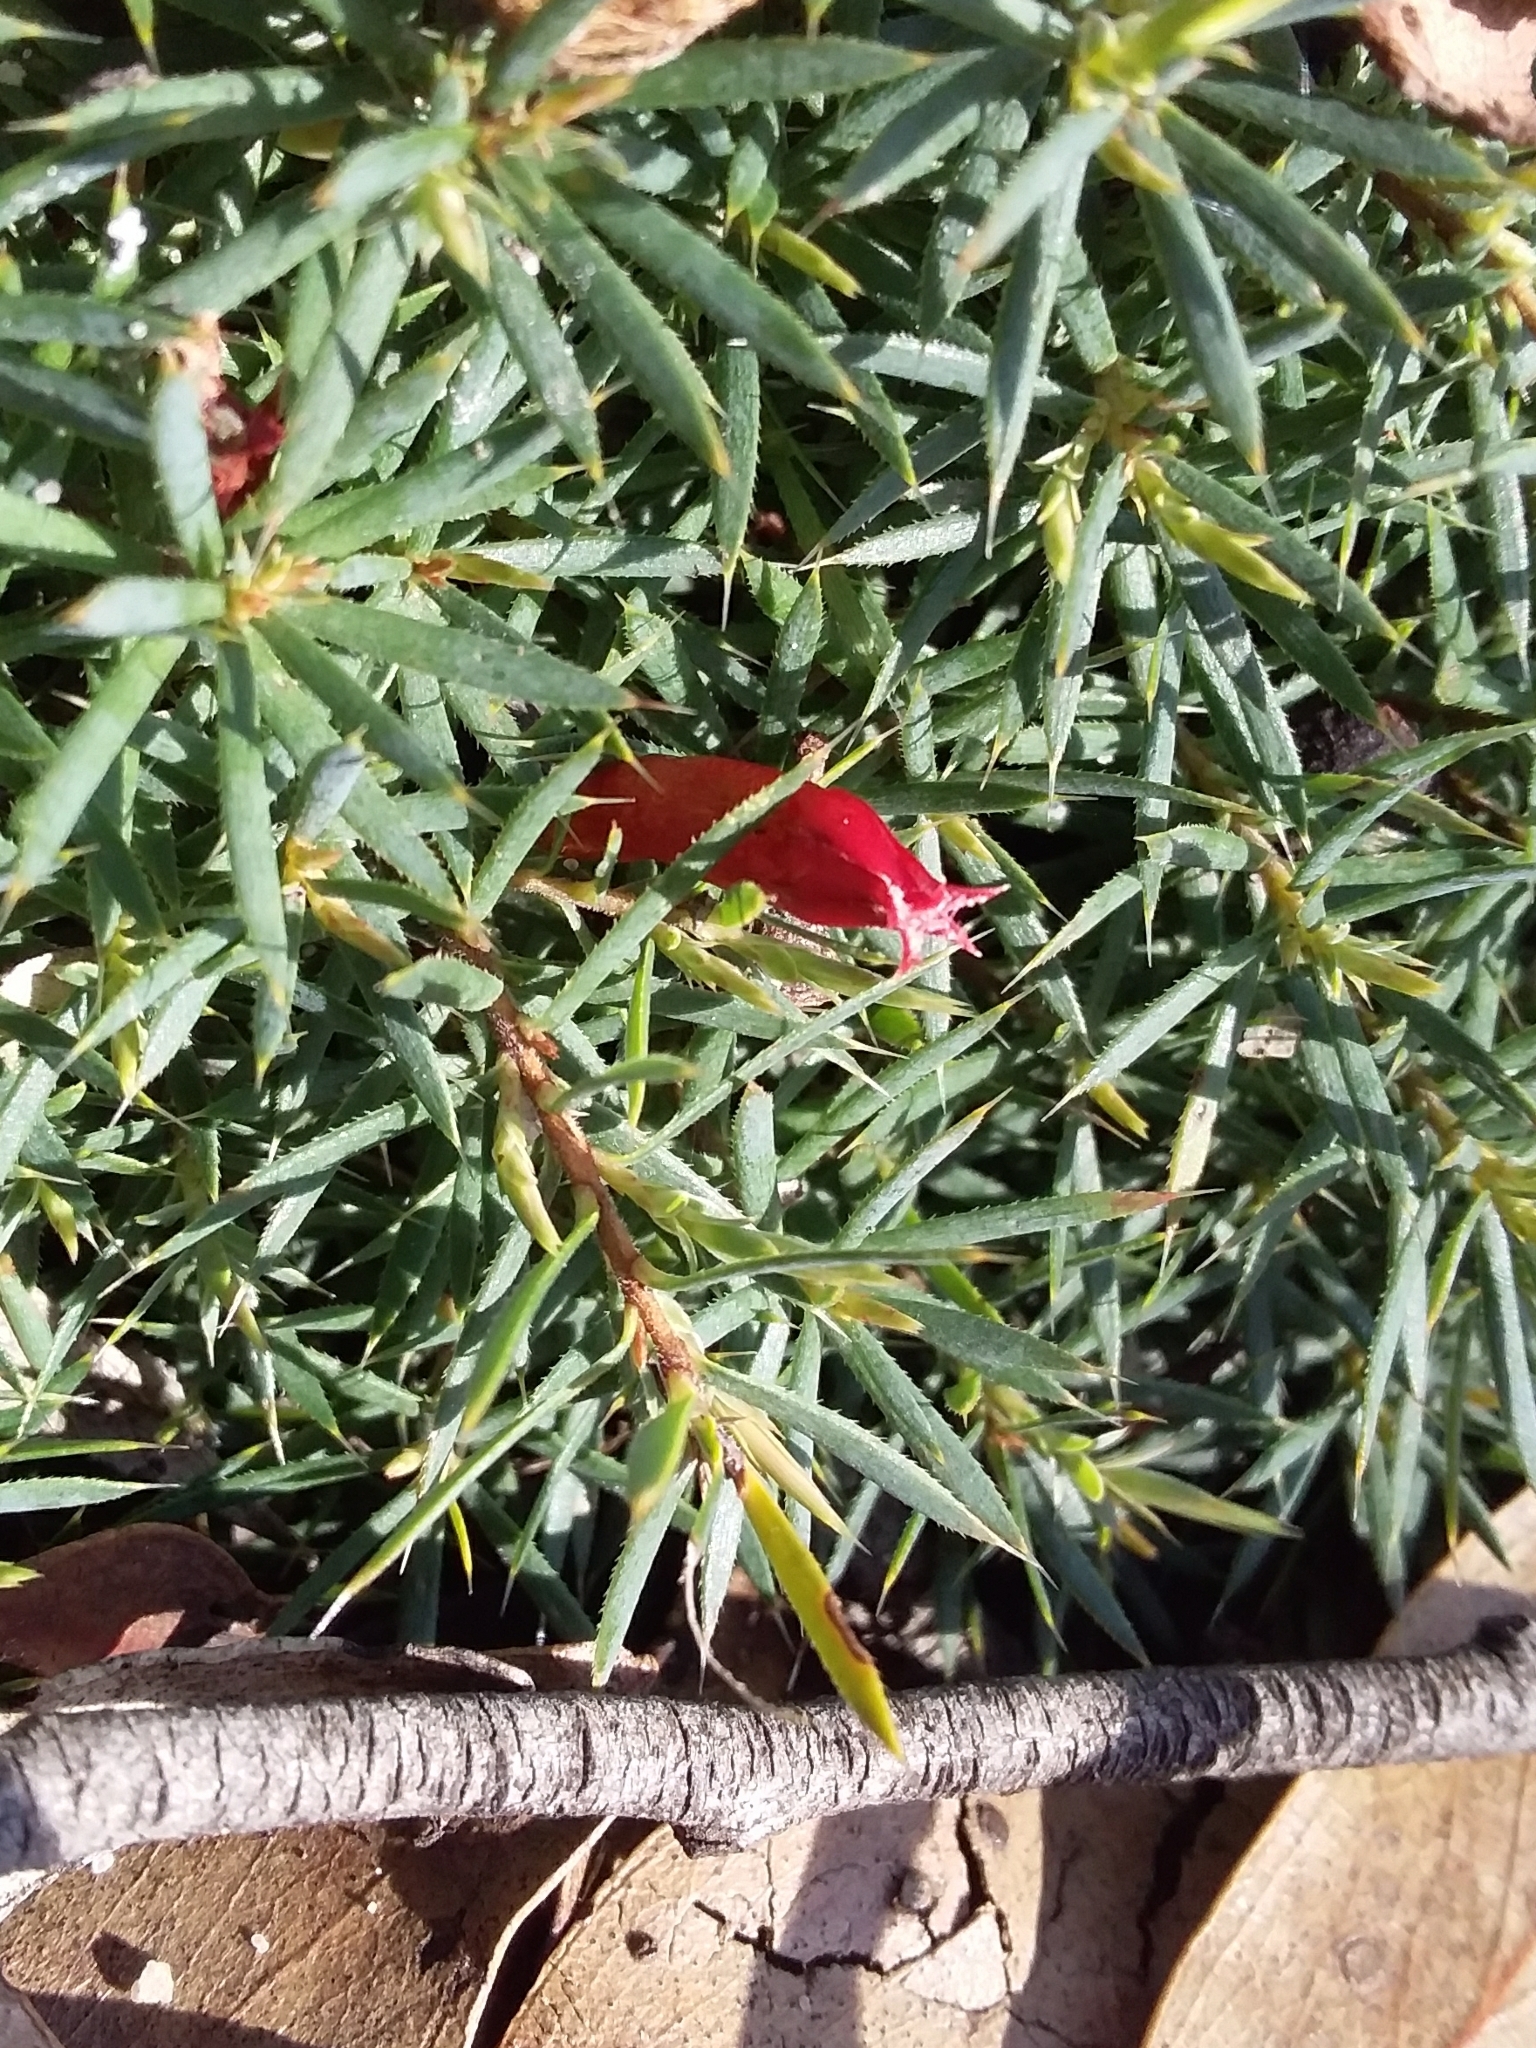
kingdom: Plantae
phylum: Tracheophyta
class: Magnoliopsida
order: Ericales
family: Ericaceae
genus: Styphelia
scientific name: Styphelia humifusa
